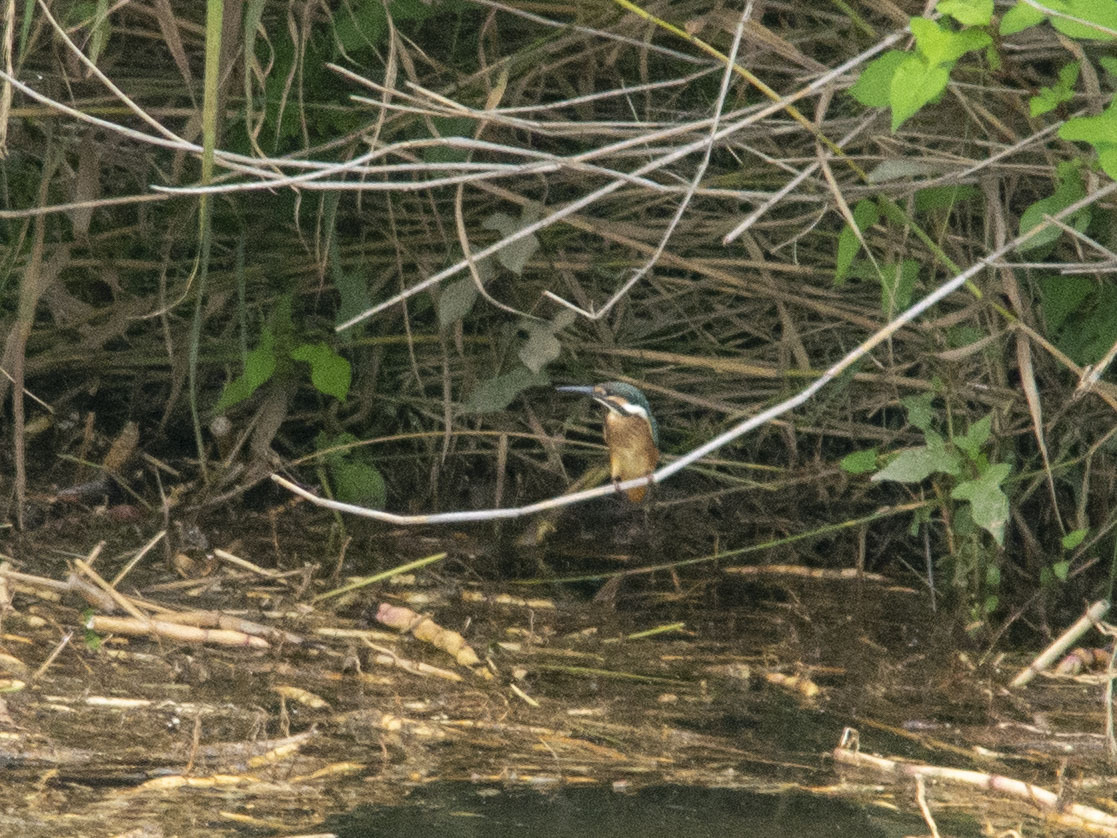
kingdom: Animalia
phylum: Chordata
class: Aves
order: Coraciiformes
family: Alcedinidae
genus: Alcedo
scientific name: Alcedo atthis
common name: Common kingfisher
